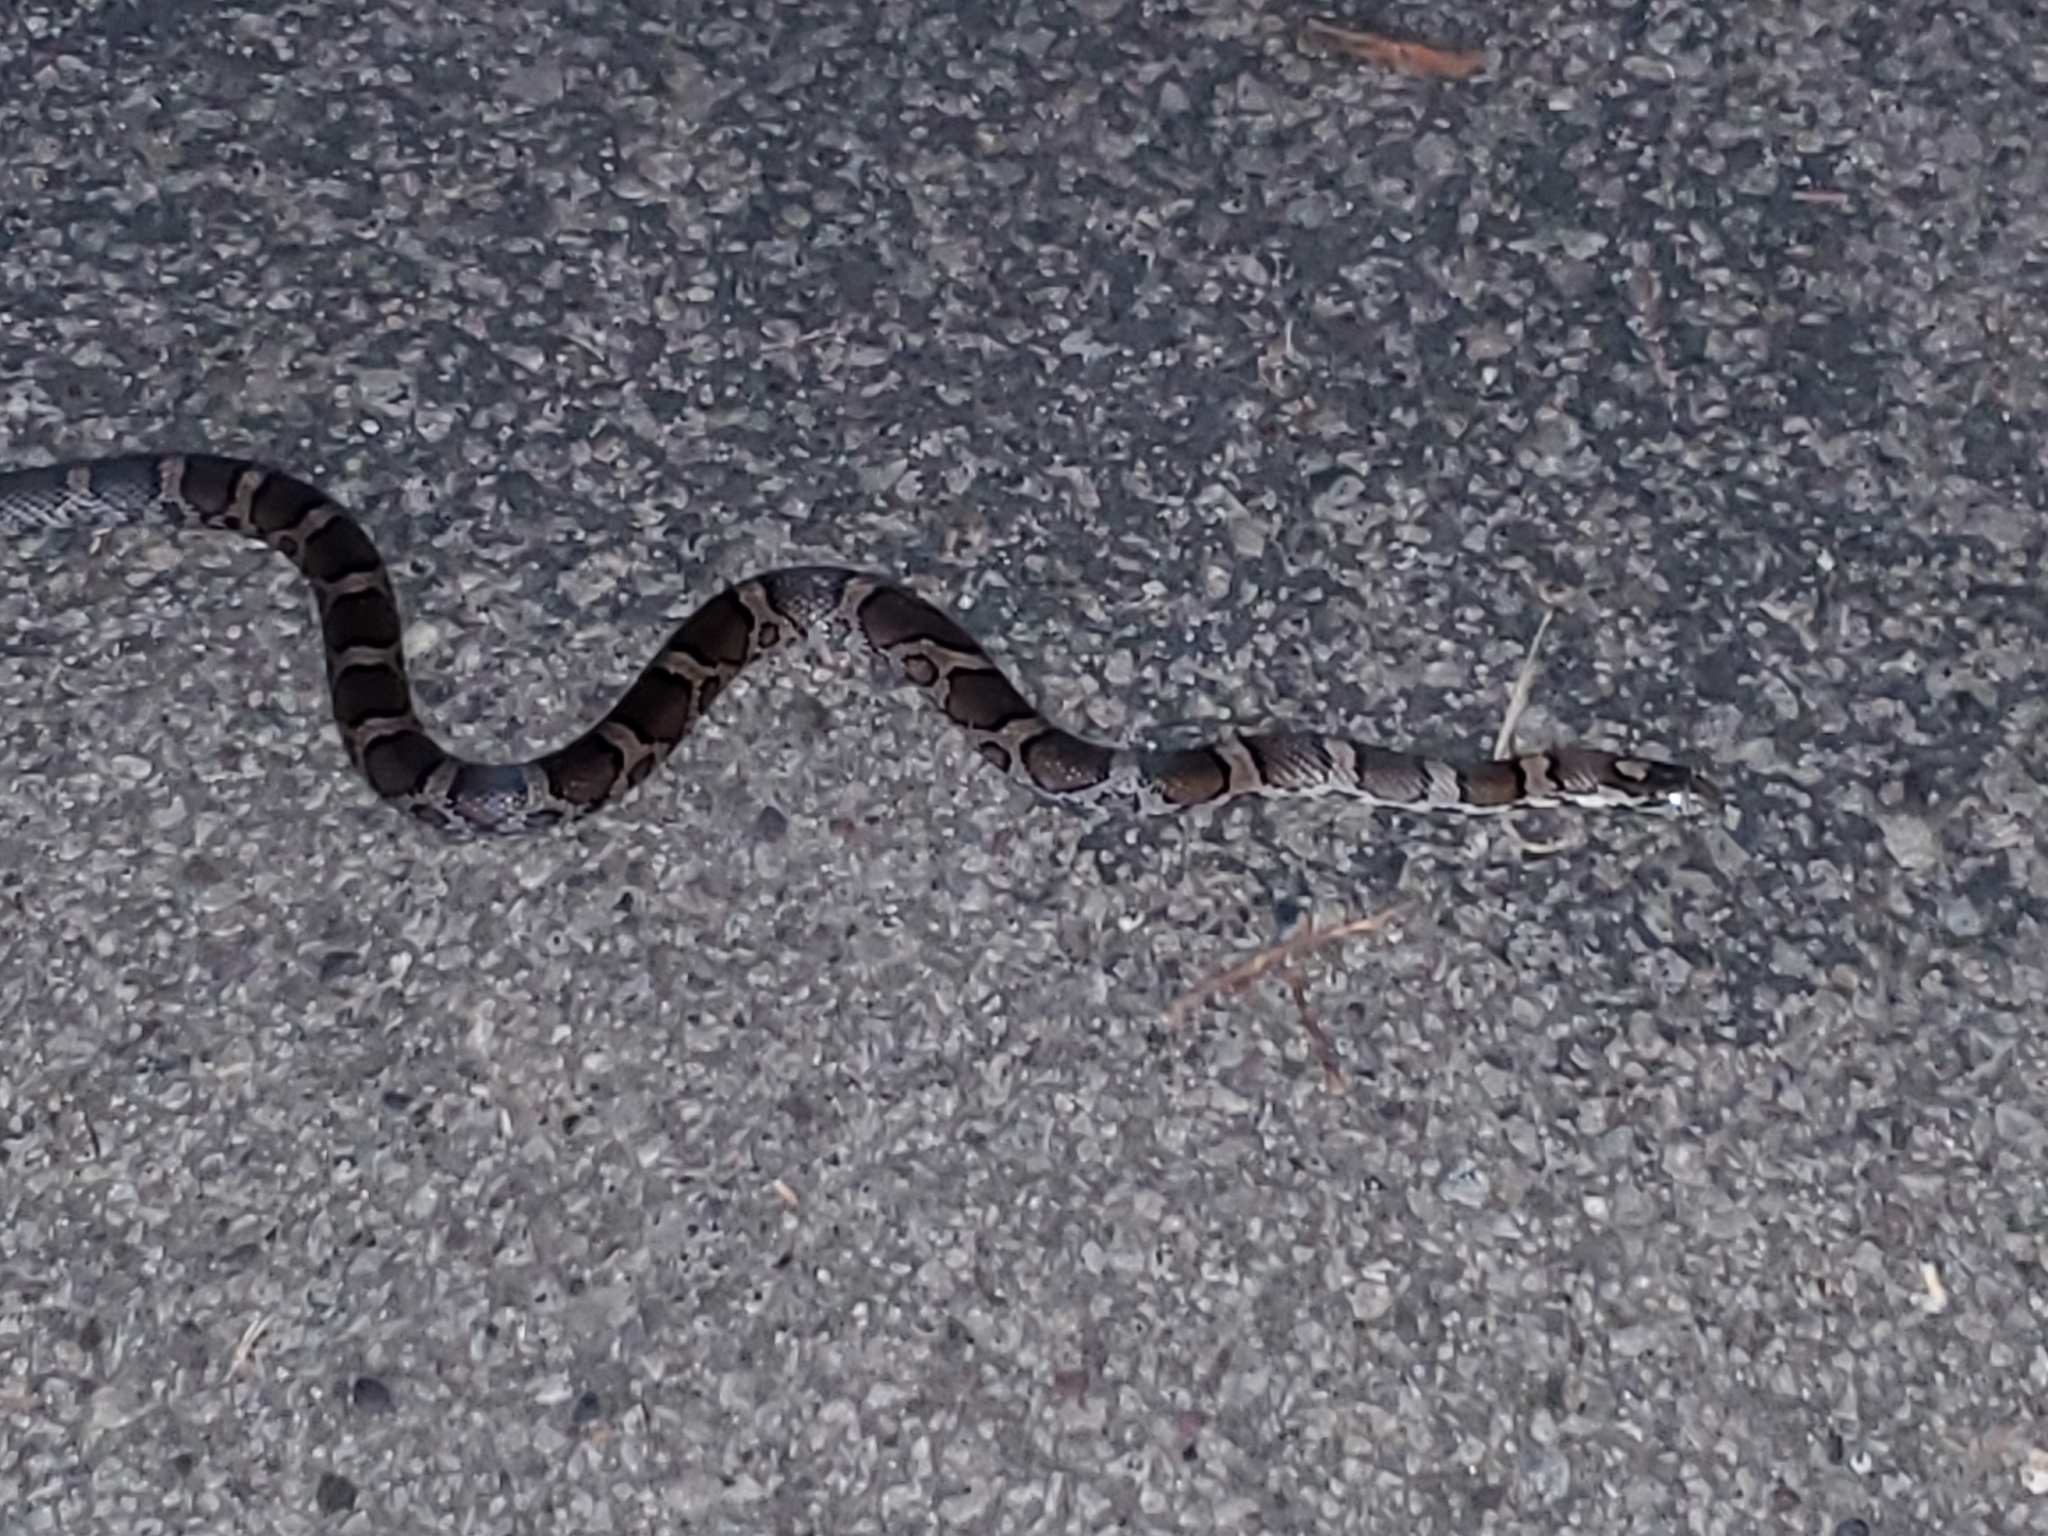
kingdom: Animalia
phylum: Chordata
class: Squamata
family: Colubridae
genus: Lampropeltis
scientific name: Lampropeltis triangulum
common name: Eastern milksnake
